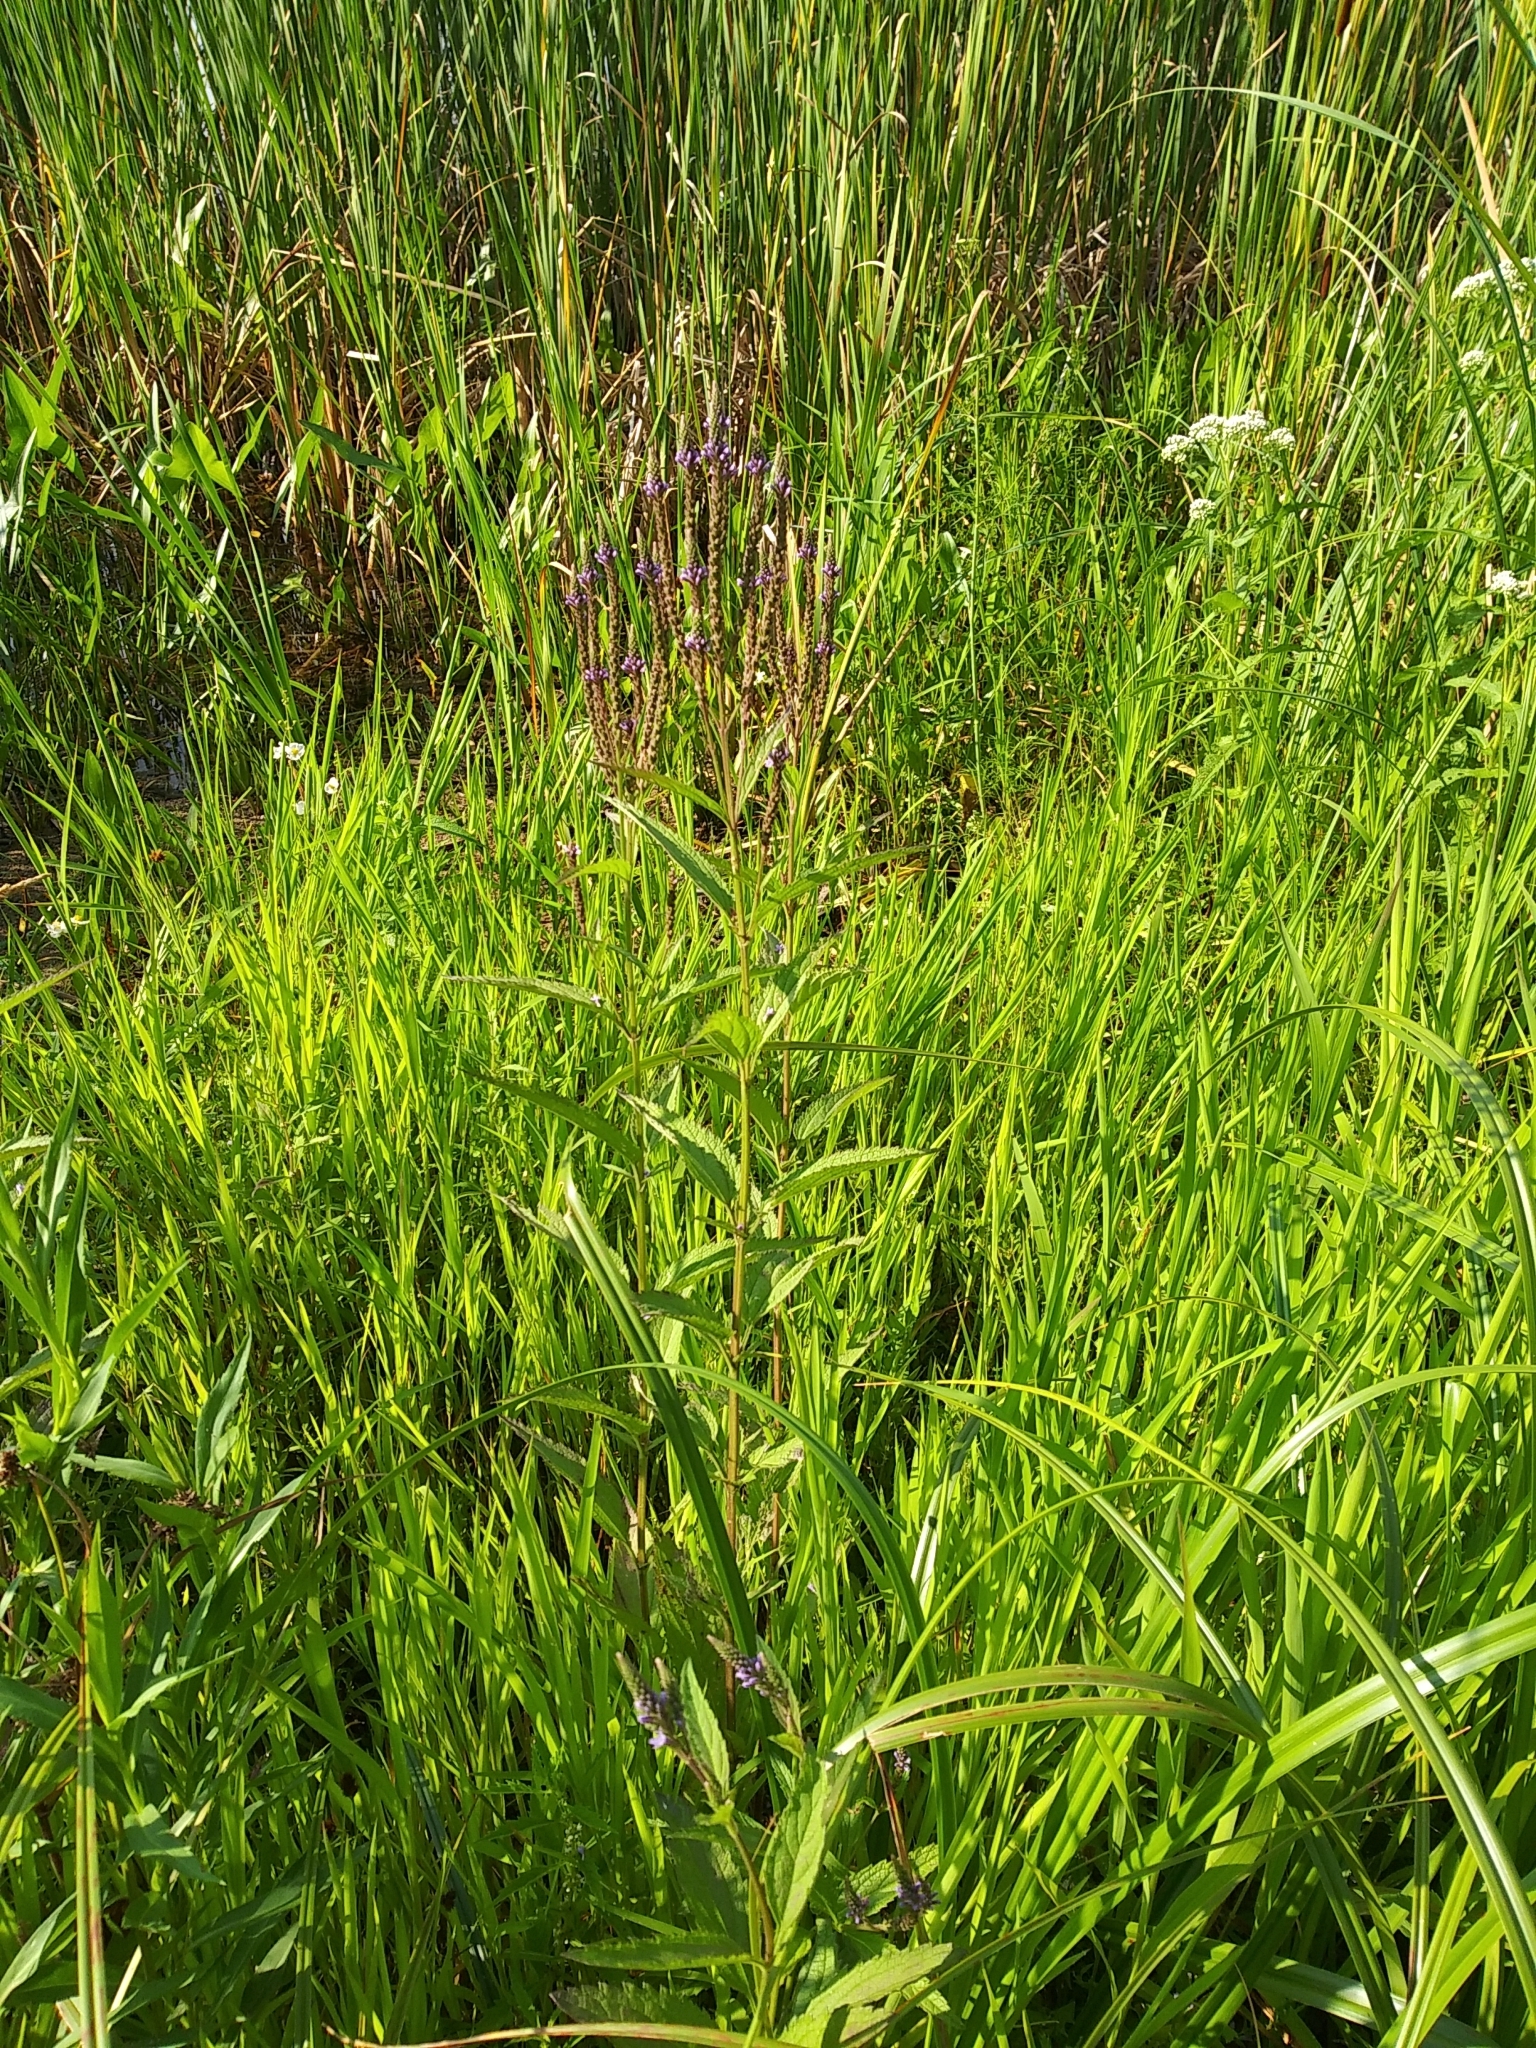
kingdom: Plantae
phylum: Tracheophyta
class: Magnoliopsida
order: Lamiales
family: Verbenaceae
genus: Verbena
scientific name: Verbena hastata
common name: American blue vervain
